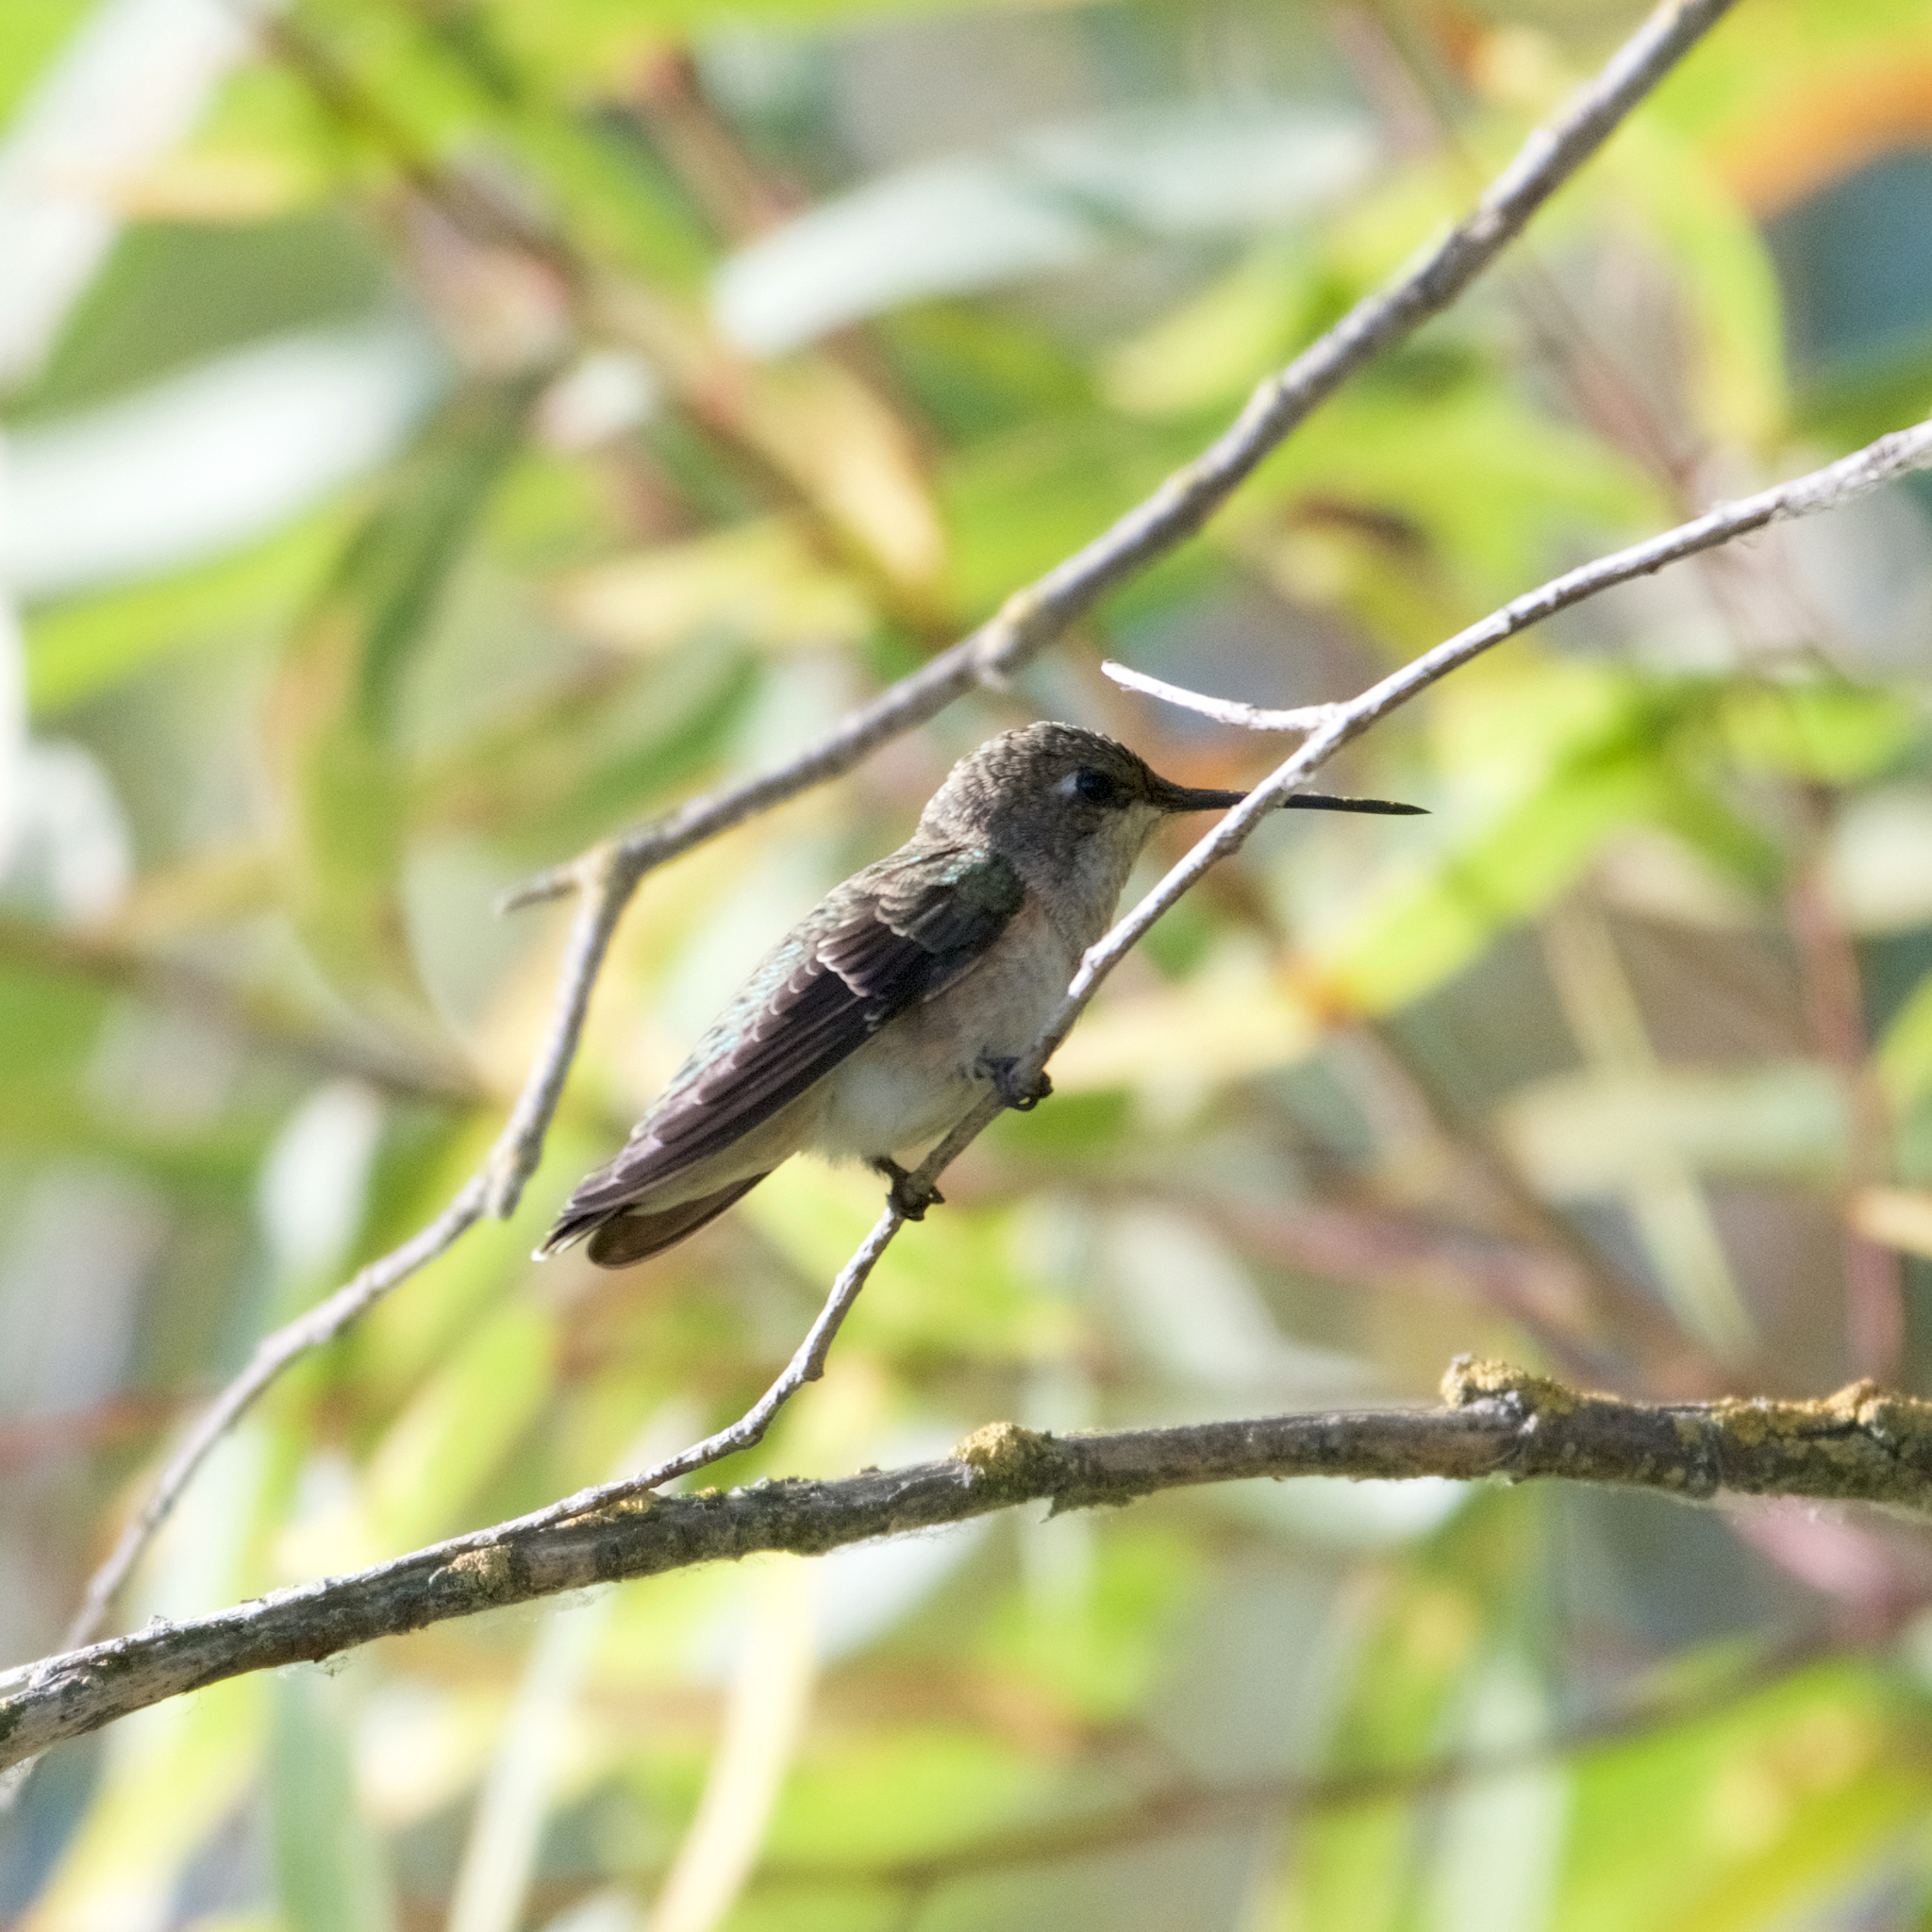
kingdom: Animalia
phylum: Chordata
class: Aves
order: Apodiformes
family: Trochilidae
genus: Archilochus
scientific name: Archilochus alexandri
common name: Black-chinned hummingbird
